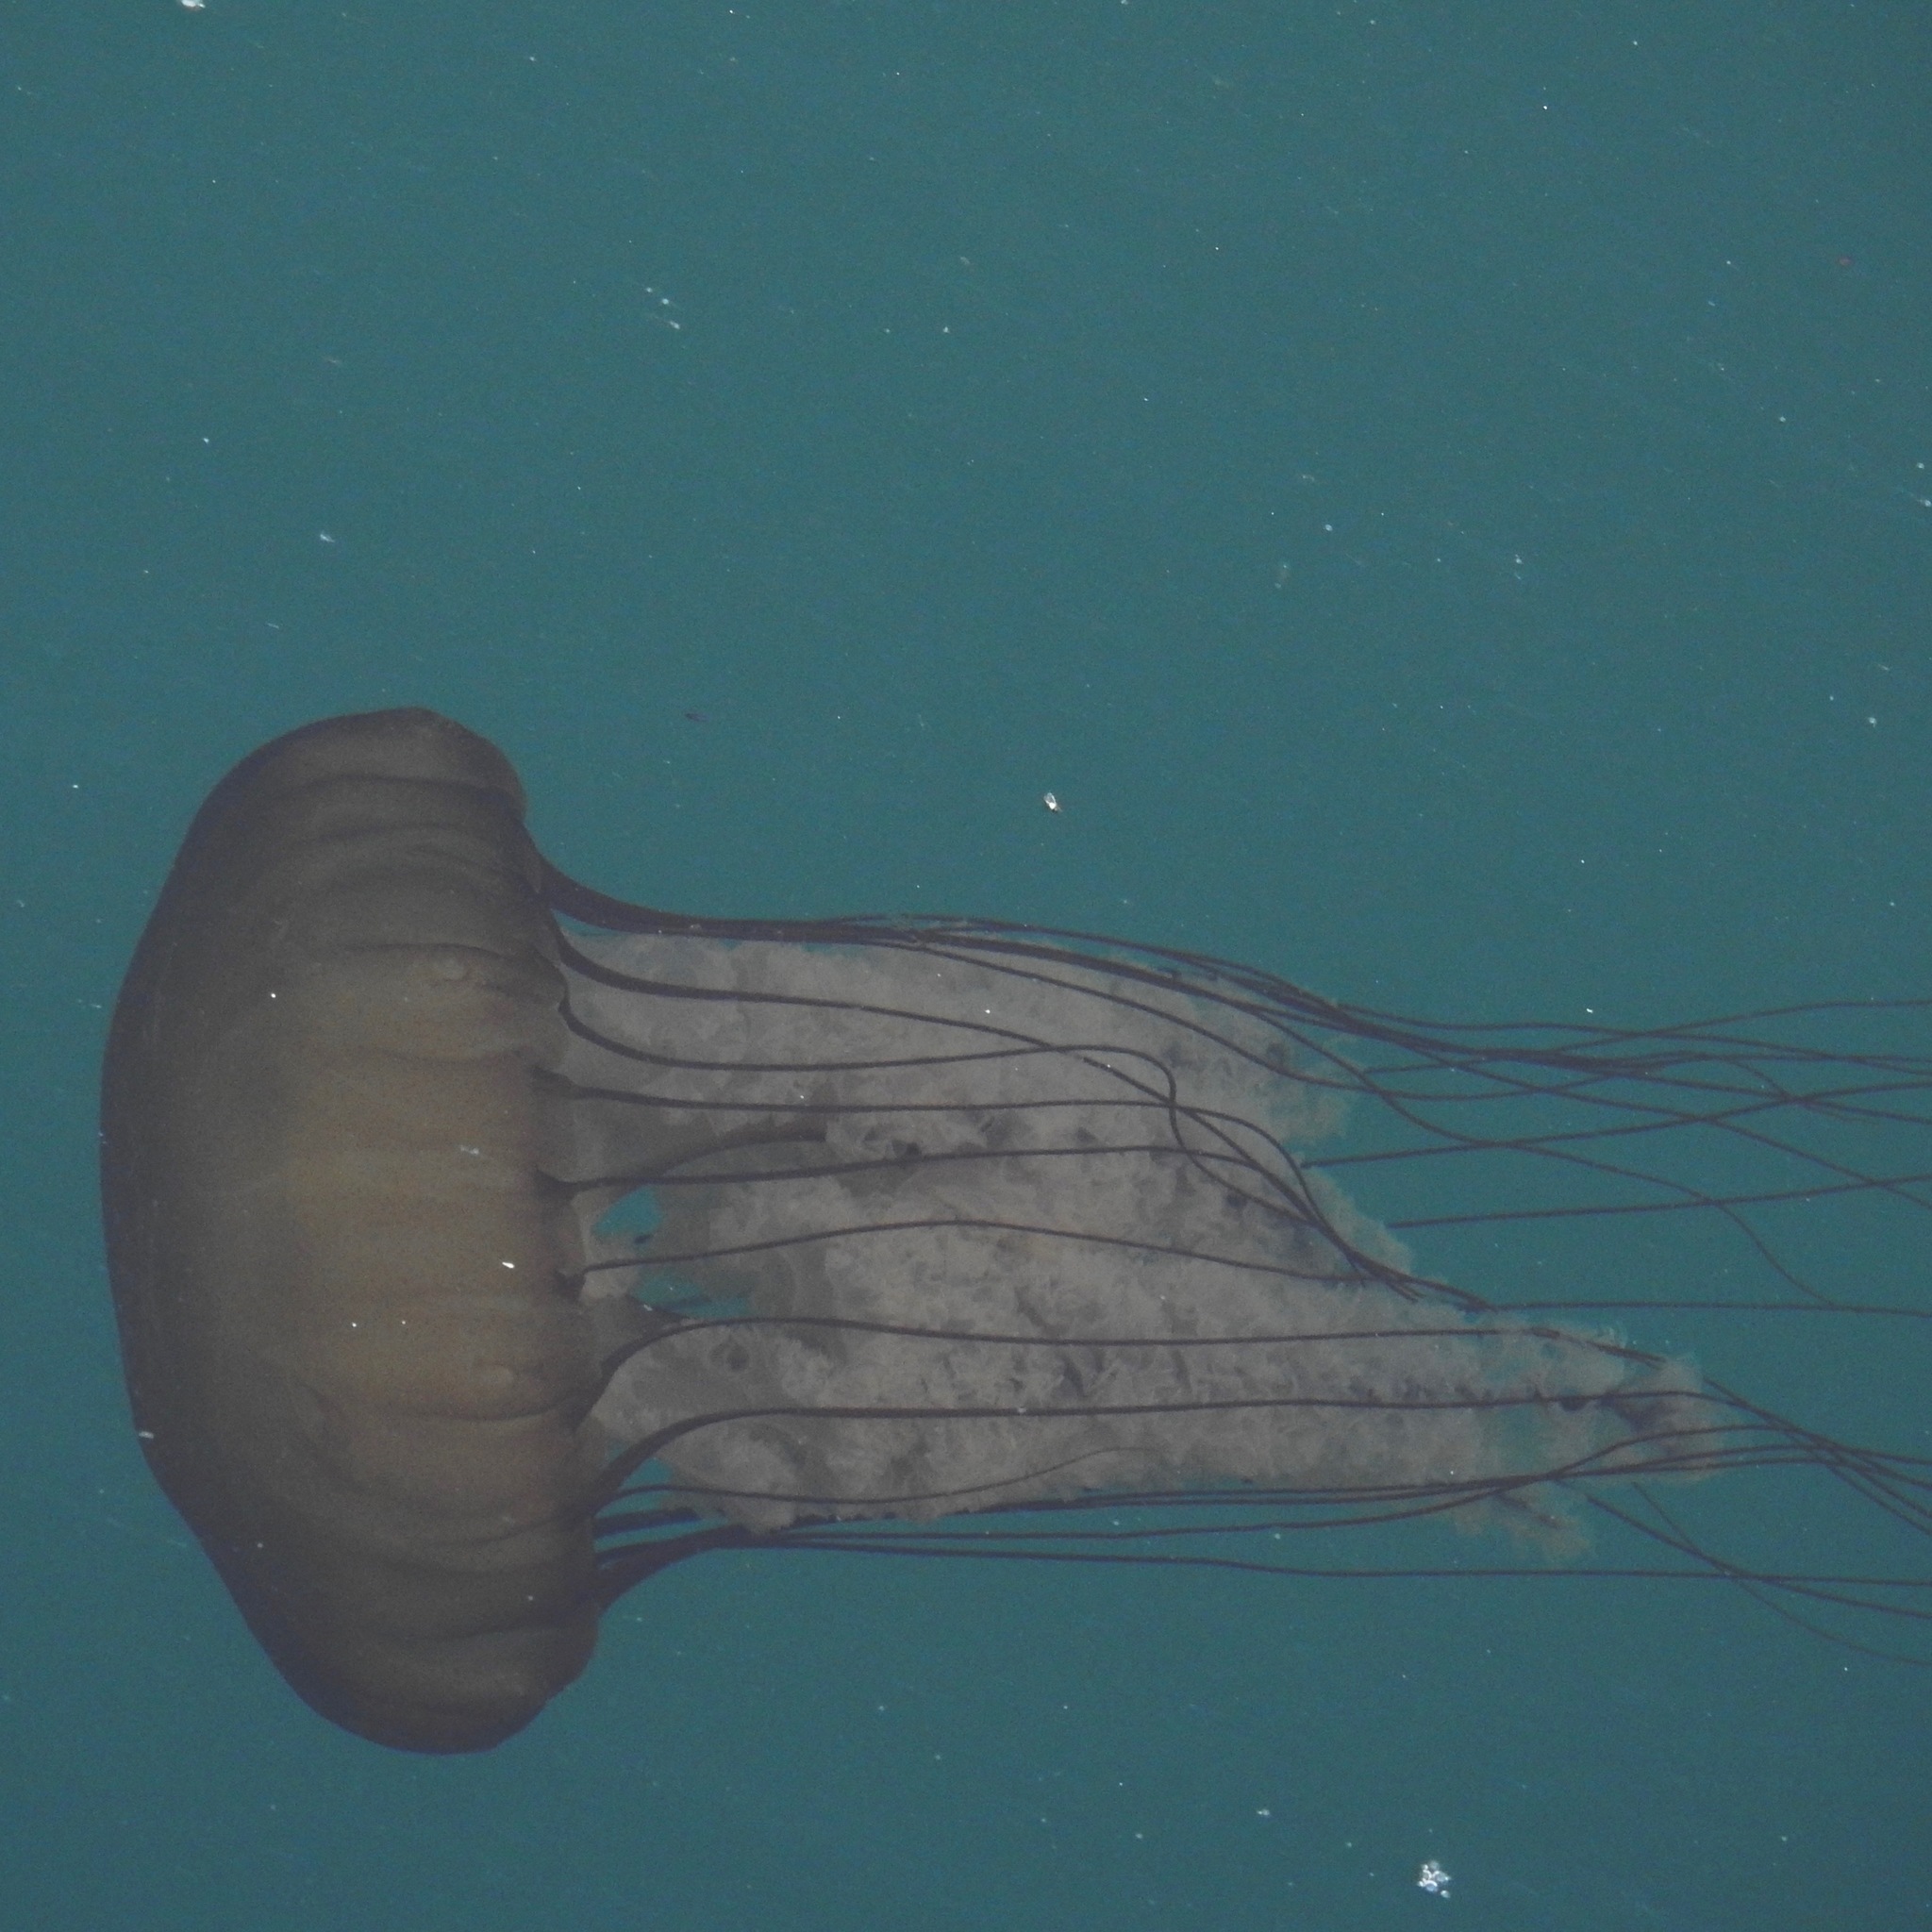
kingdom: Animalia
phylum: Cnidaria
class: Scyphozoa
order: Semaeostomeae
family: Pelagiidae
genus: Chrysaora
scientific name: Chrysaora fuscescens
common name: Sea nettle
